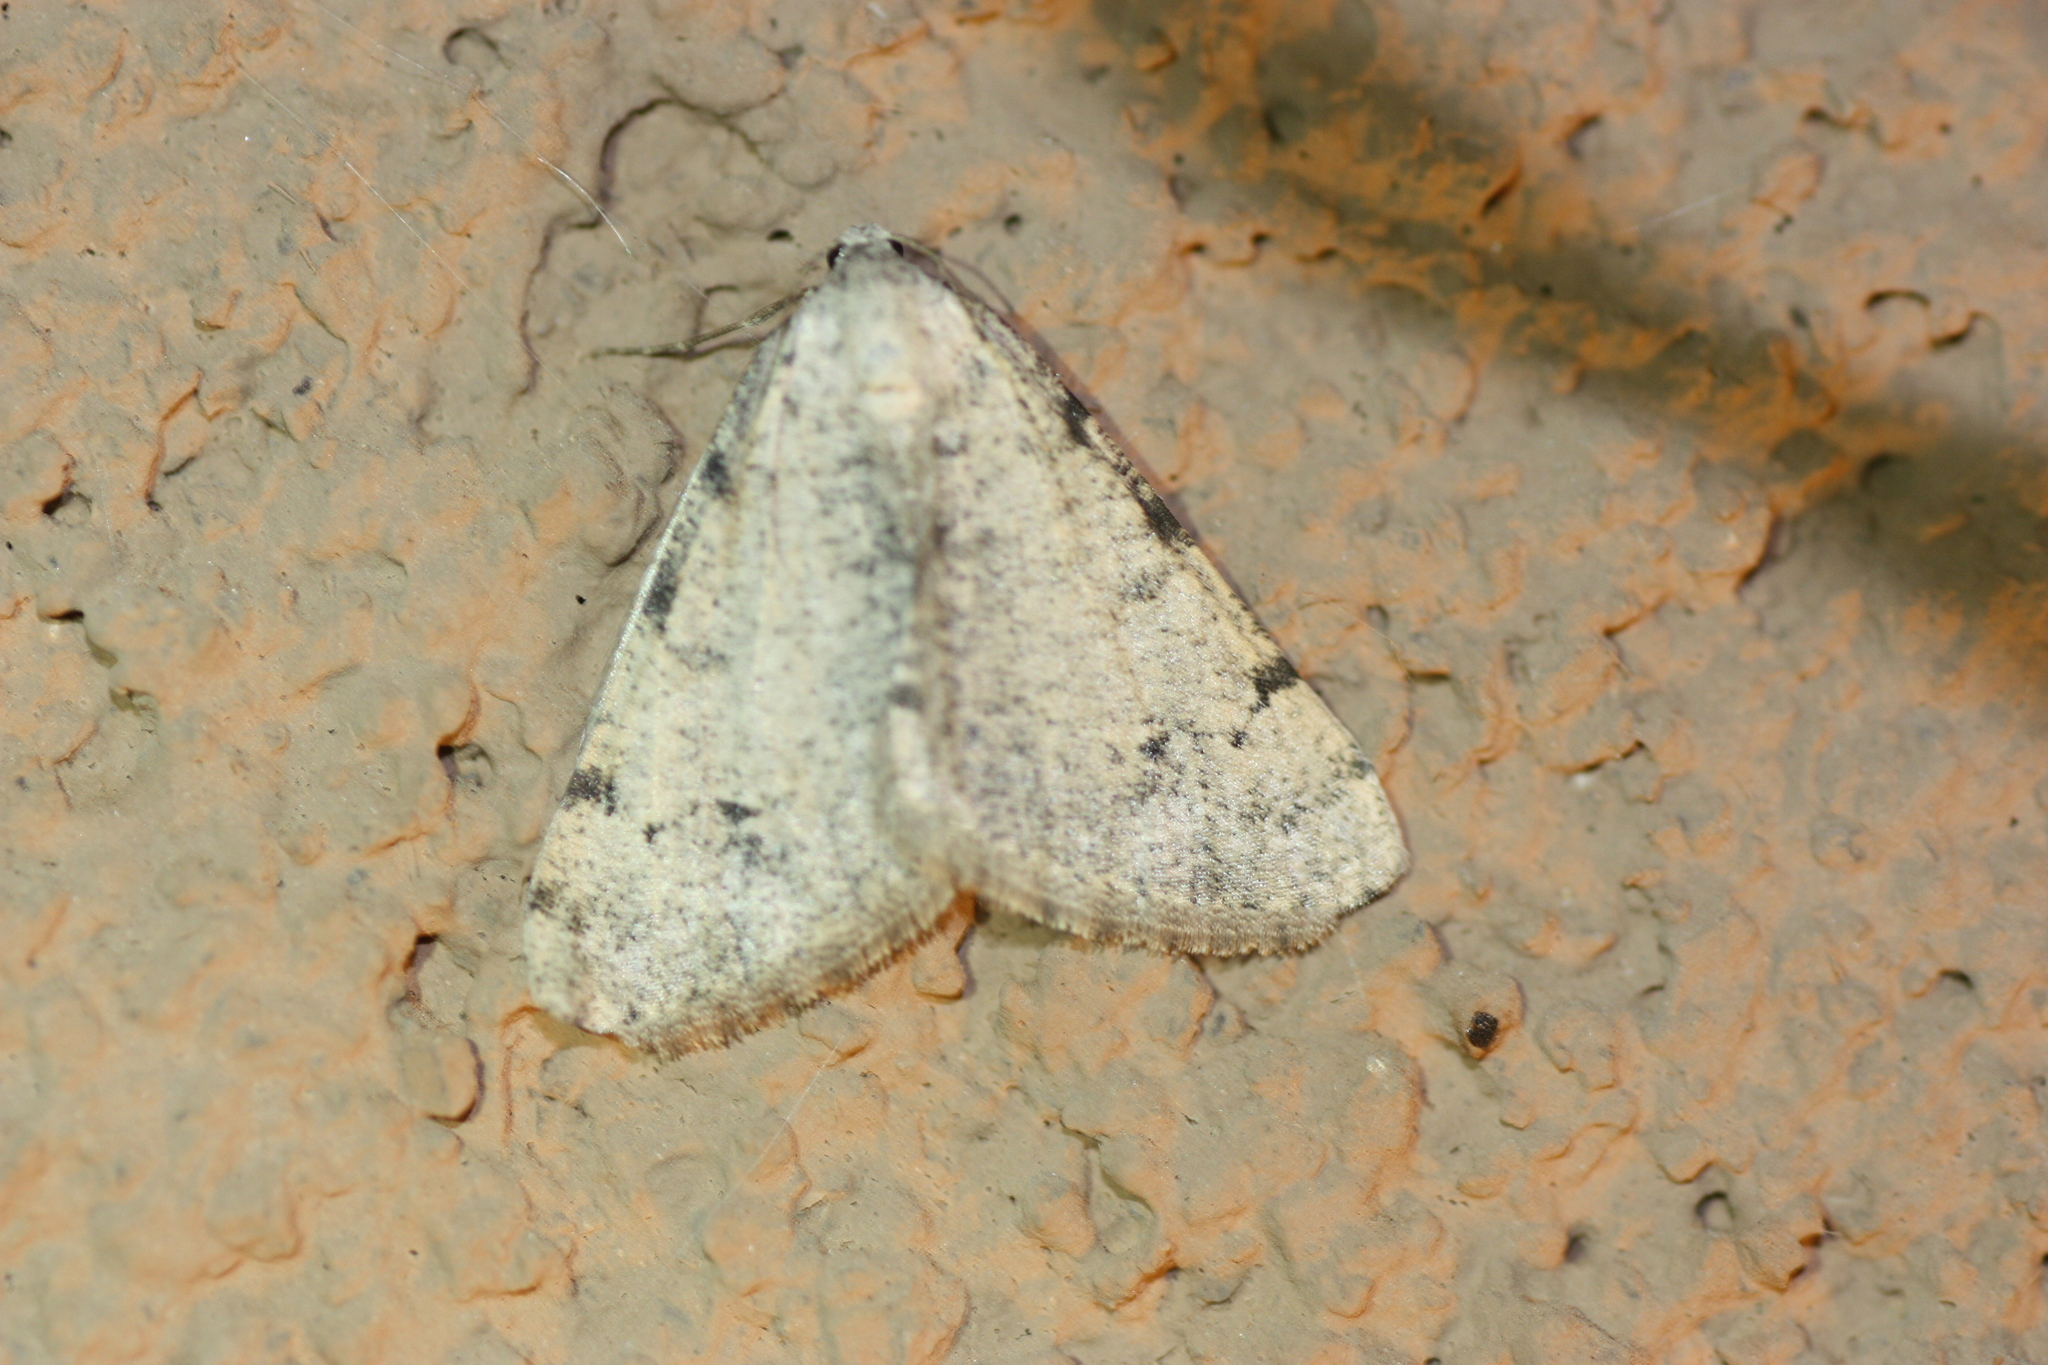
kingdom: Animalia
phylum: Arthropoda
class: Insecta
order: Lepidoptera
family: Geometridae
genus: Digrammia
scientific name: Digrammia colorata
